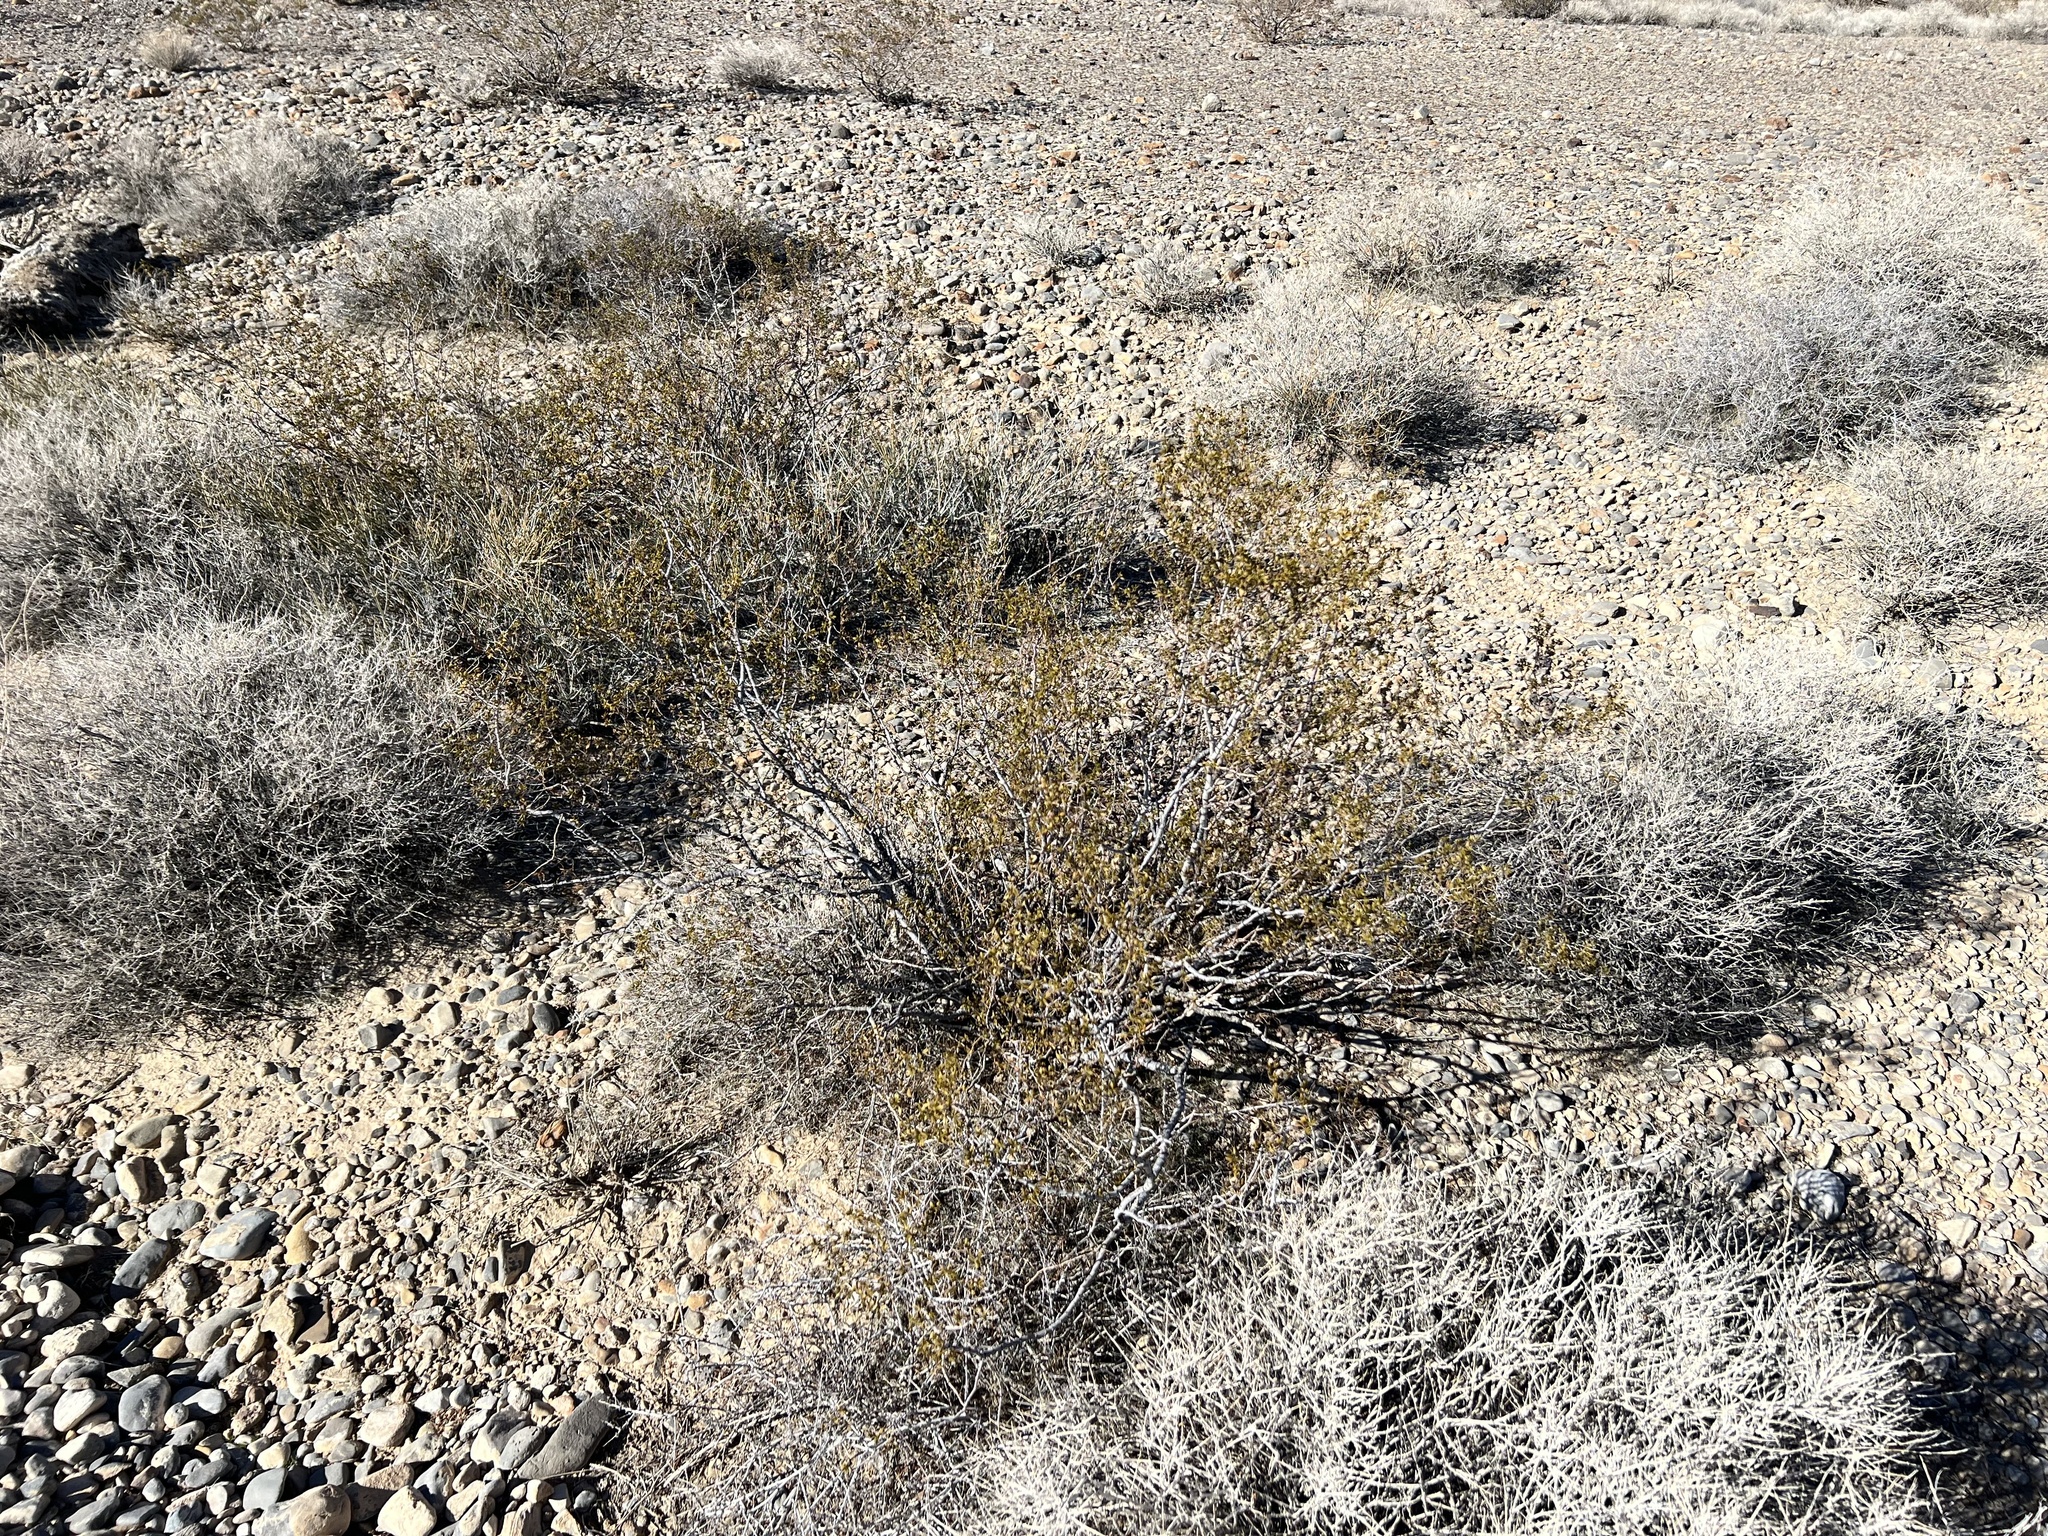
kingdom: Plantae
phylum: Tracheophyta
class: Magnoliopsida
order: Zygophyllales
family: Zygophyllaceae
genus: Larrea
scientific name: Larrea tridentata
